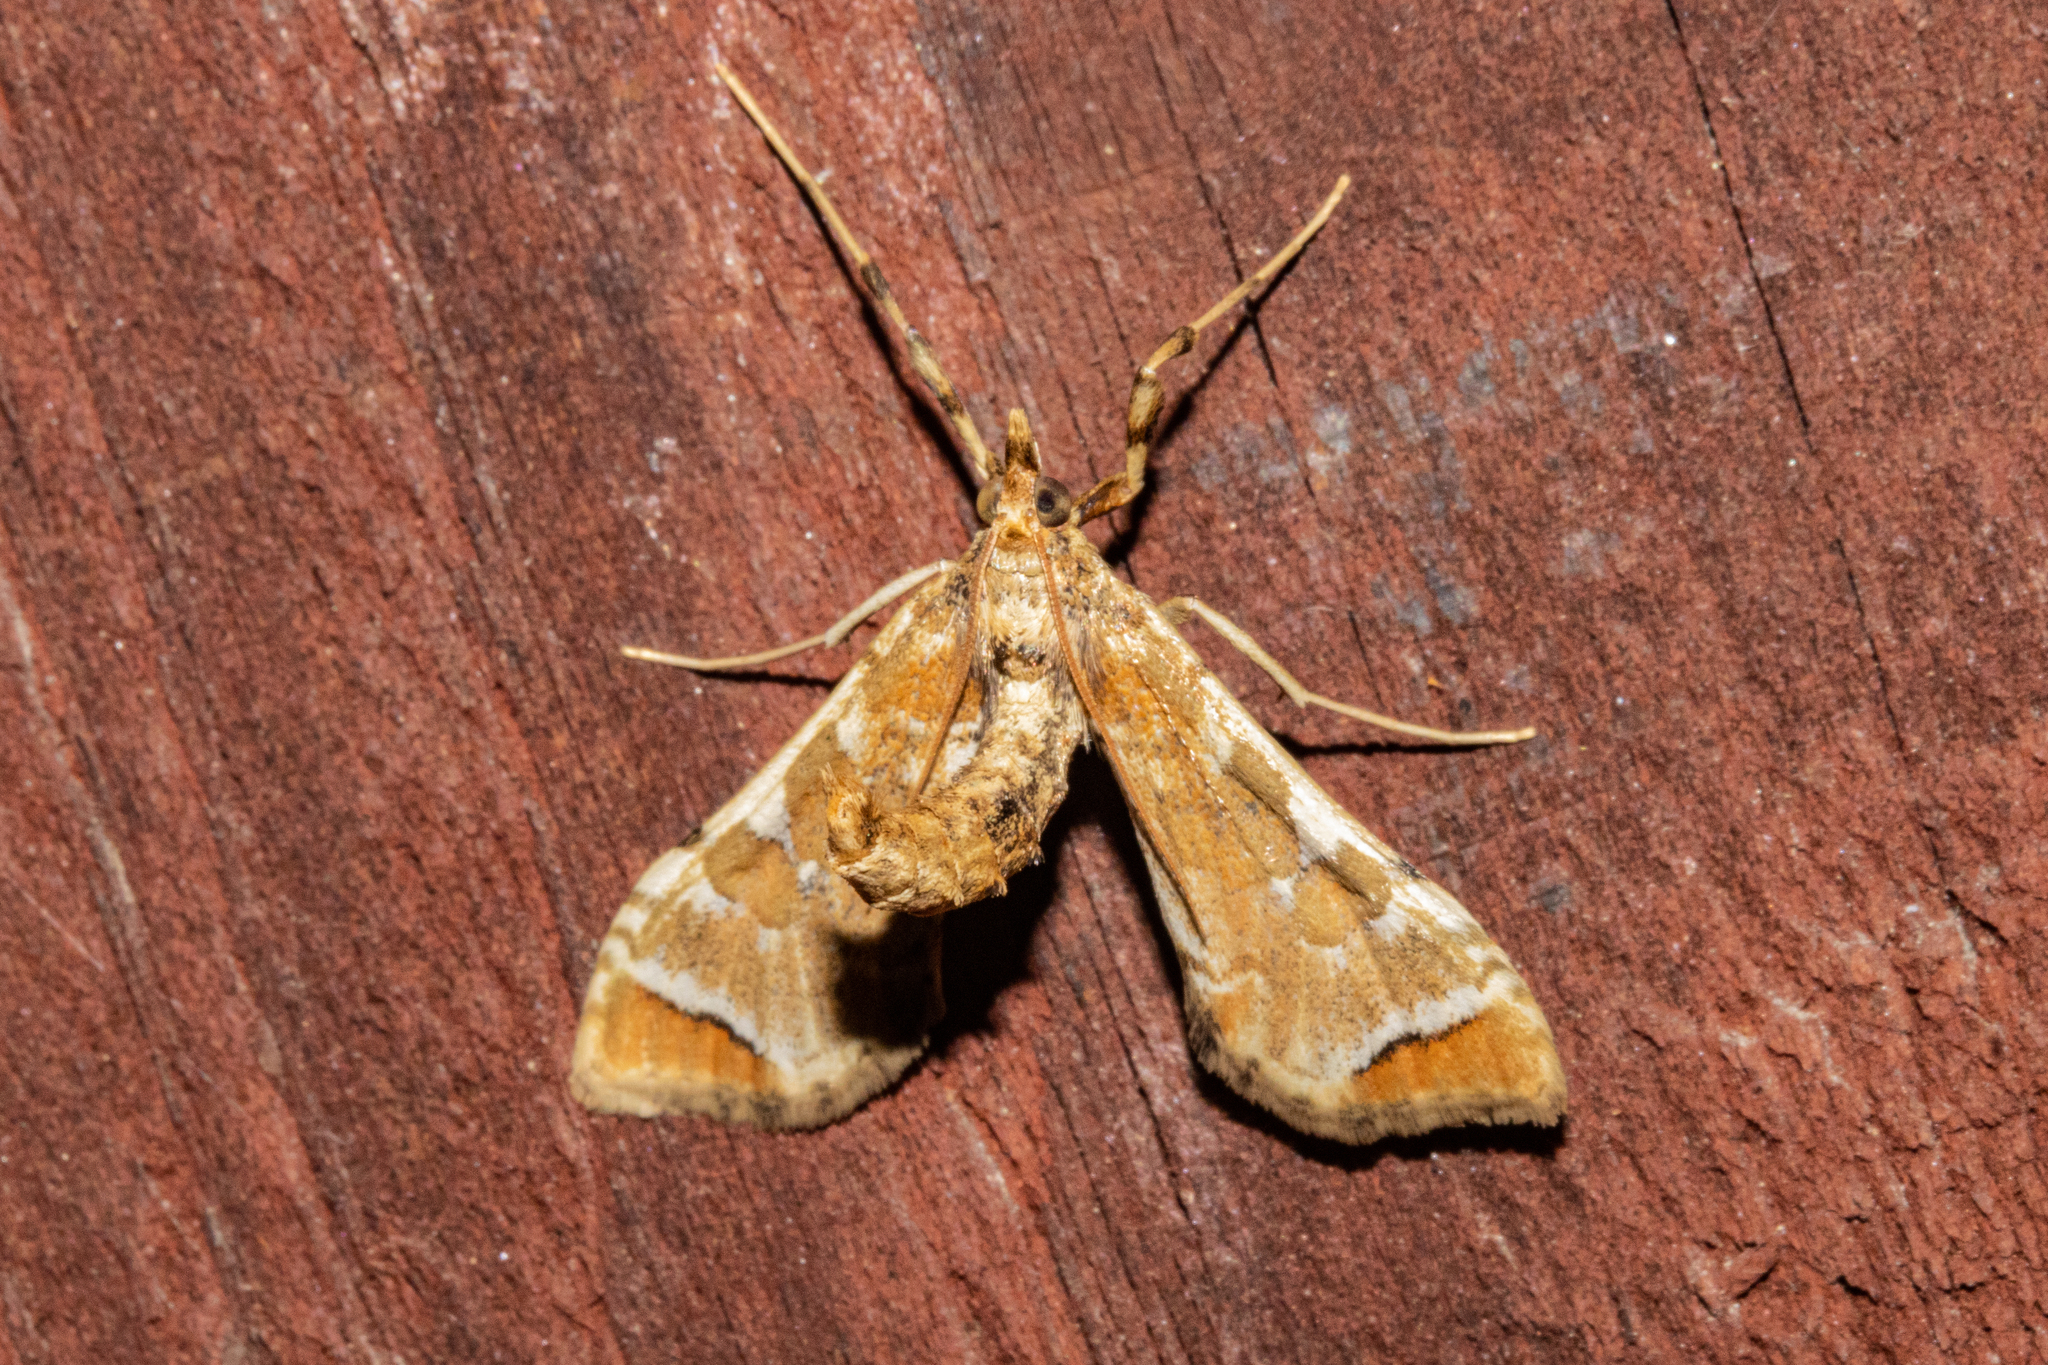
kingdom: Animalia
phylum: Arthropoda
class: Insecta
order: Lepidoptera
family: Crambidae
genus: Sceliodes
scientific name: Sceliodes cordalis
